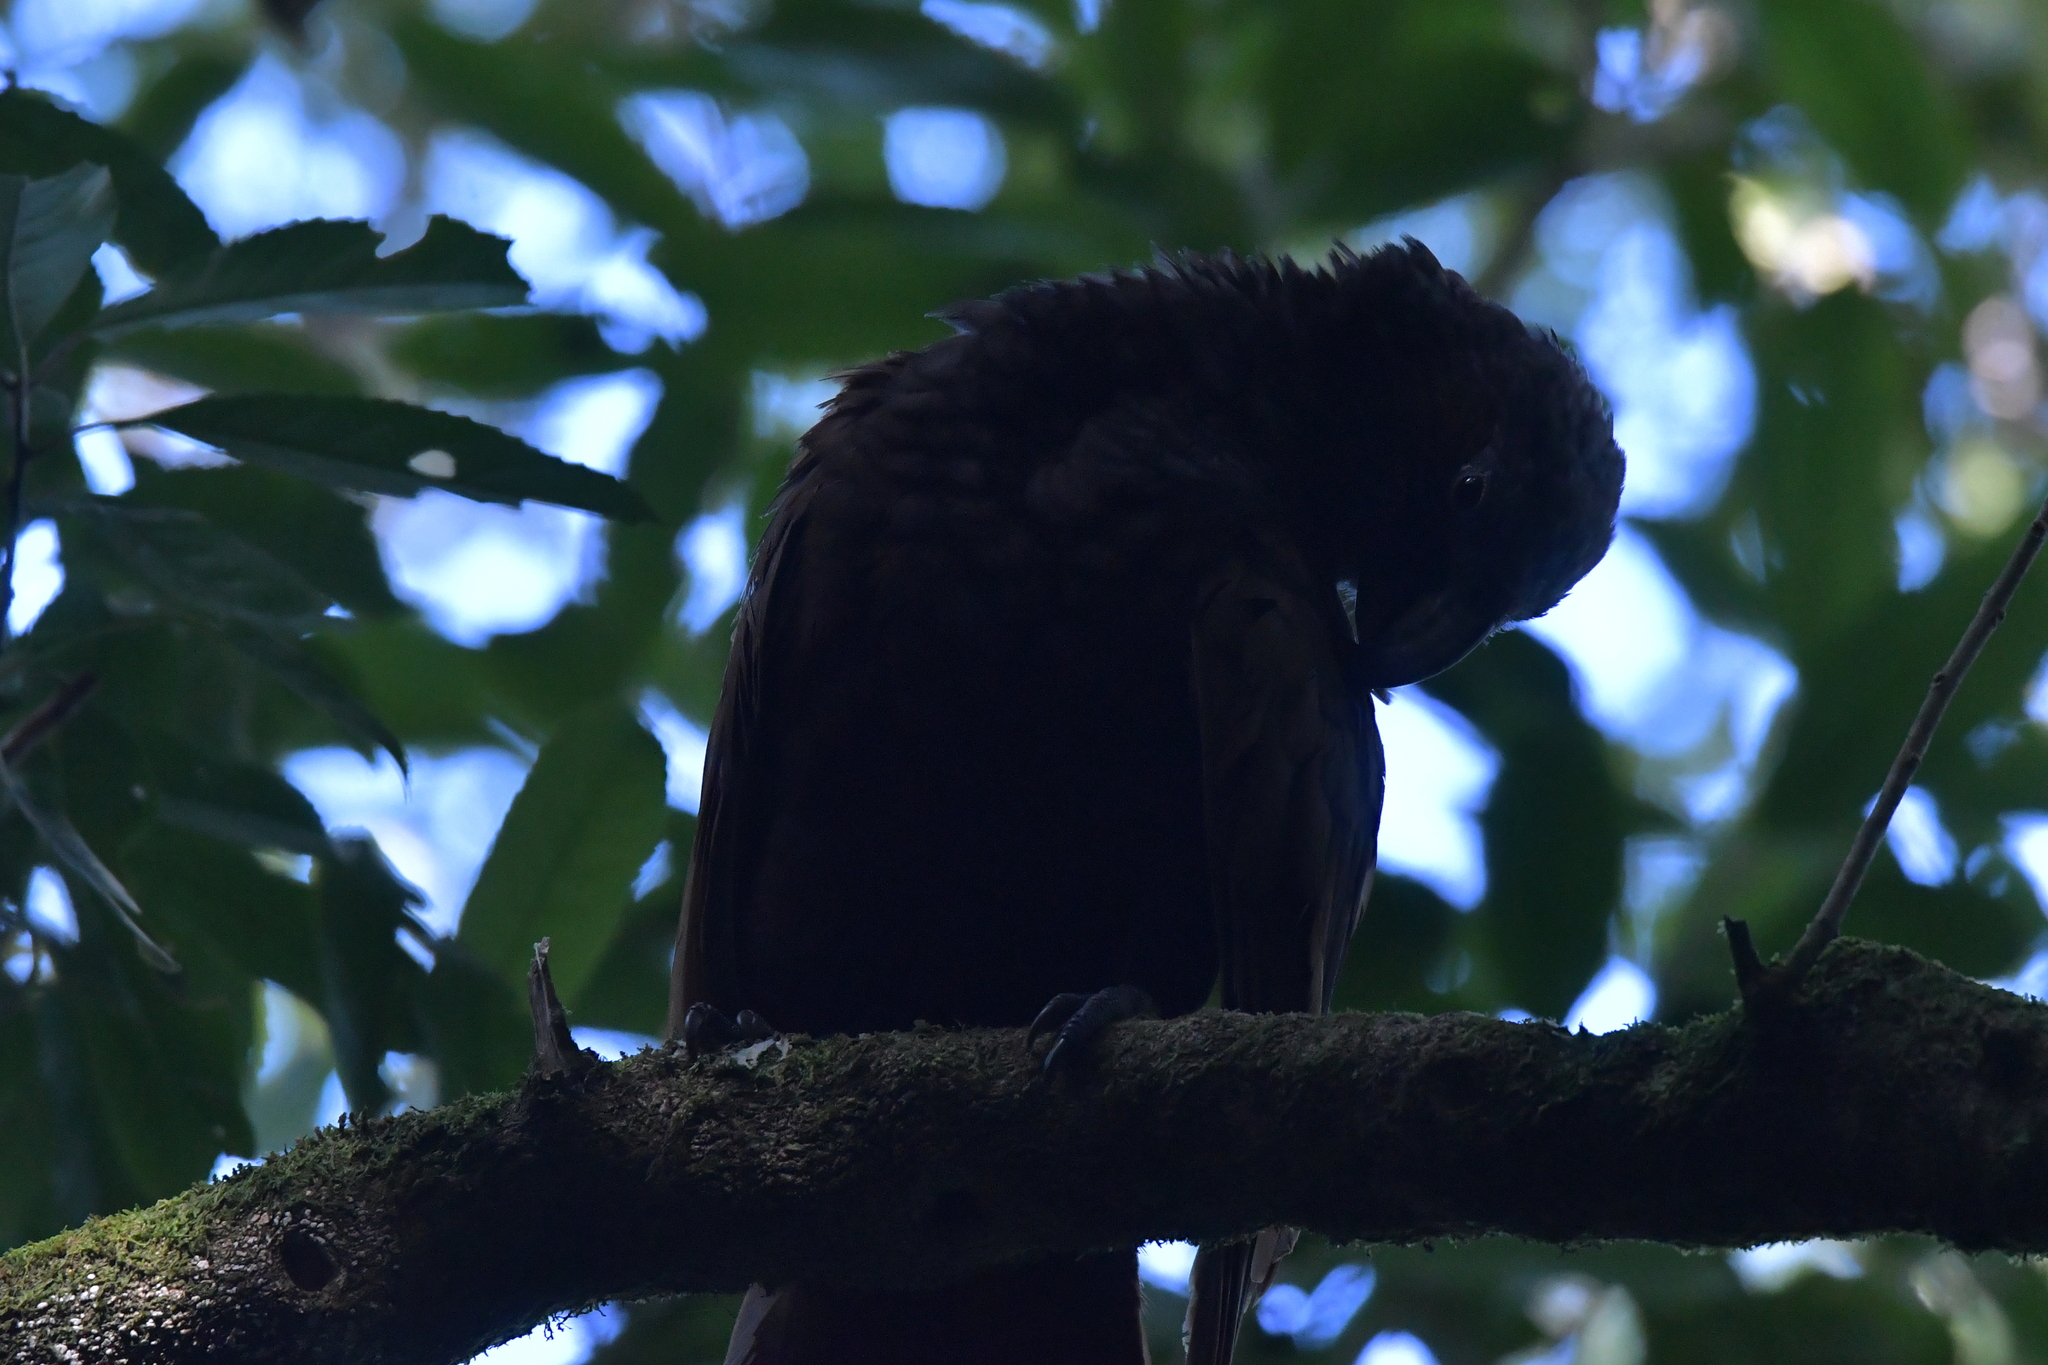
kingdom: Animalia
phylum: Chordata
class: Aves
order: Psittaciformes
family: Psittacidae
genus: Nestor
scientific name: Nestor meridionalis
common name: New zealand kaka
